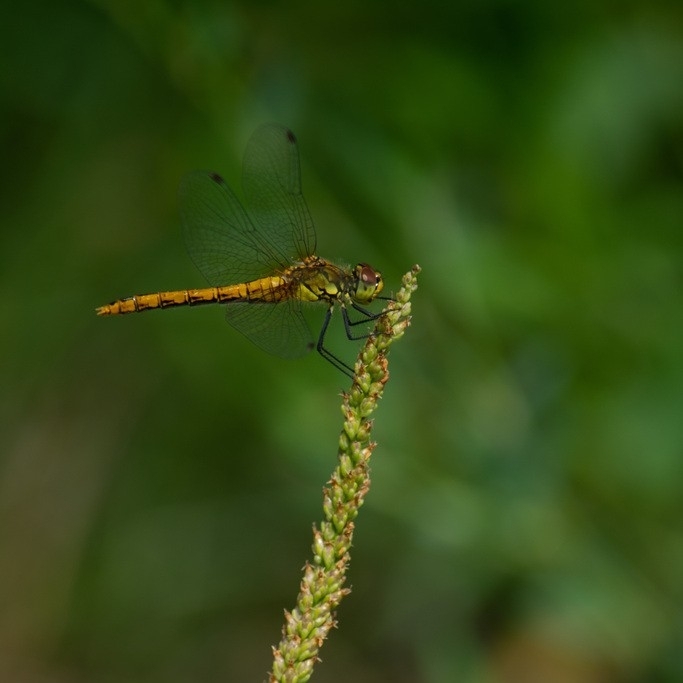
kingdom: Animalia
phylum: Arthropoda
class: Insecta
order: Odonata
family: Libellulidae
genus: Sympetrum
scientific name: Sympetrum sanguineum
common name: Ruddy darter
